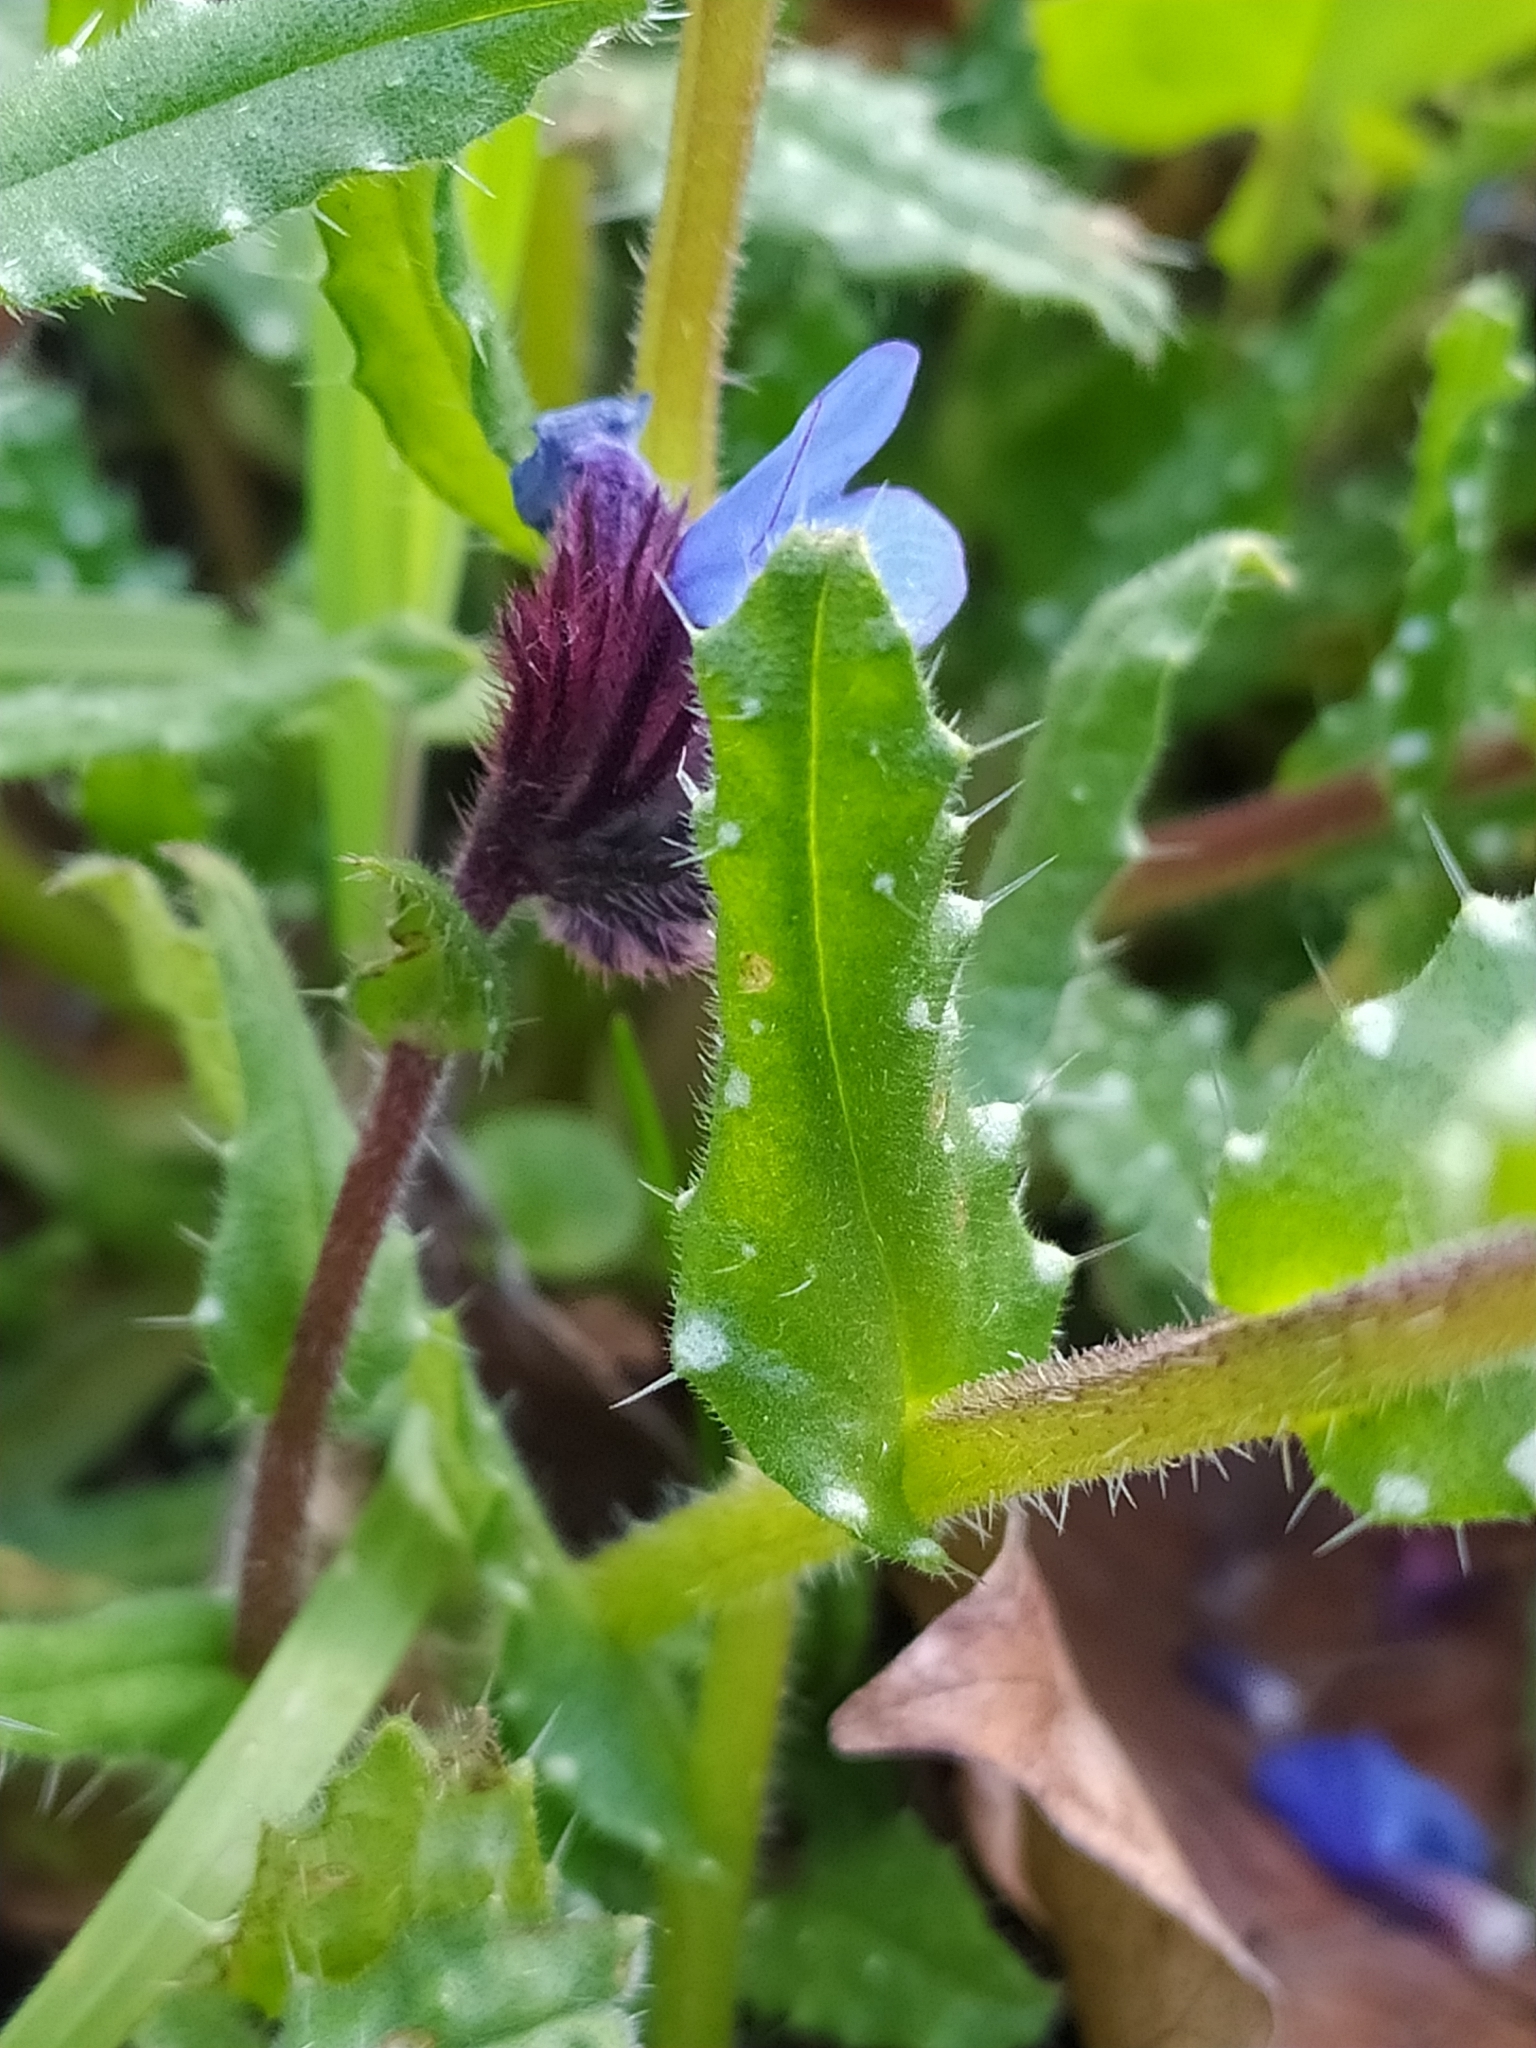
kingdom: Plantae
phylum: Tracheophyta
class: Magnoliopsida
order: Boraginales
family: Boraginaceae
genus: Anchusella
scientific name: Anchusella cretica
